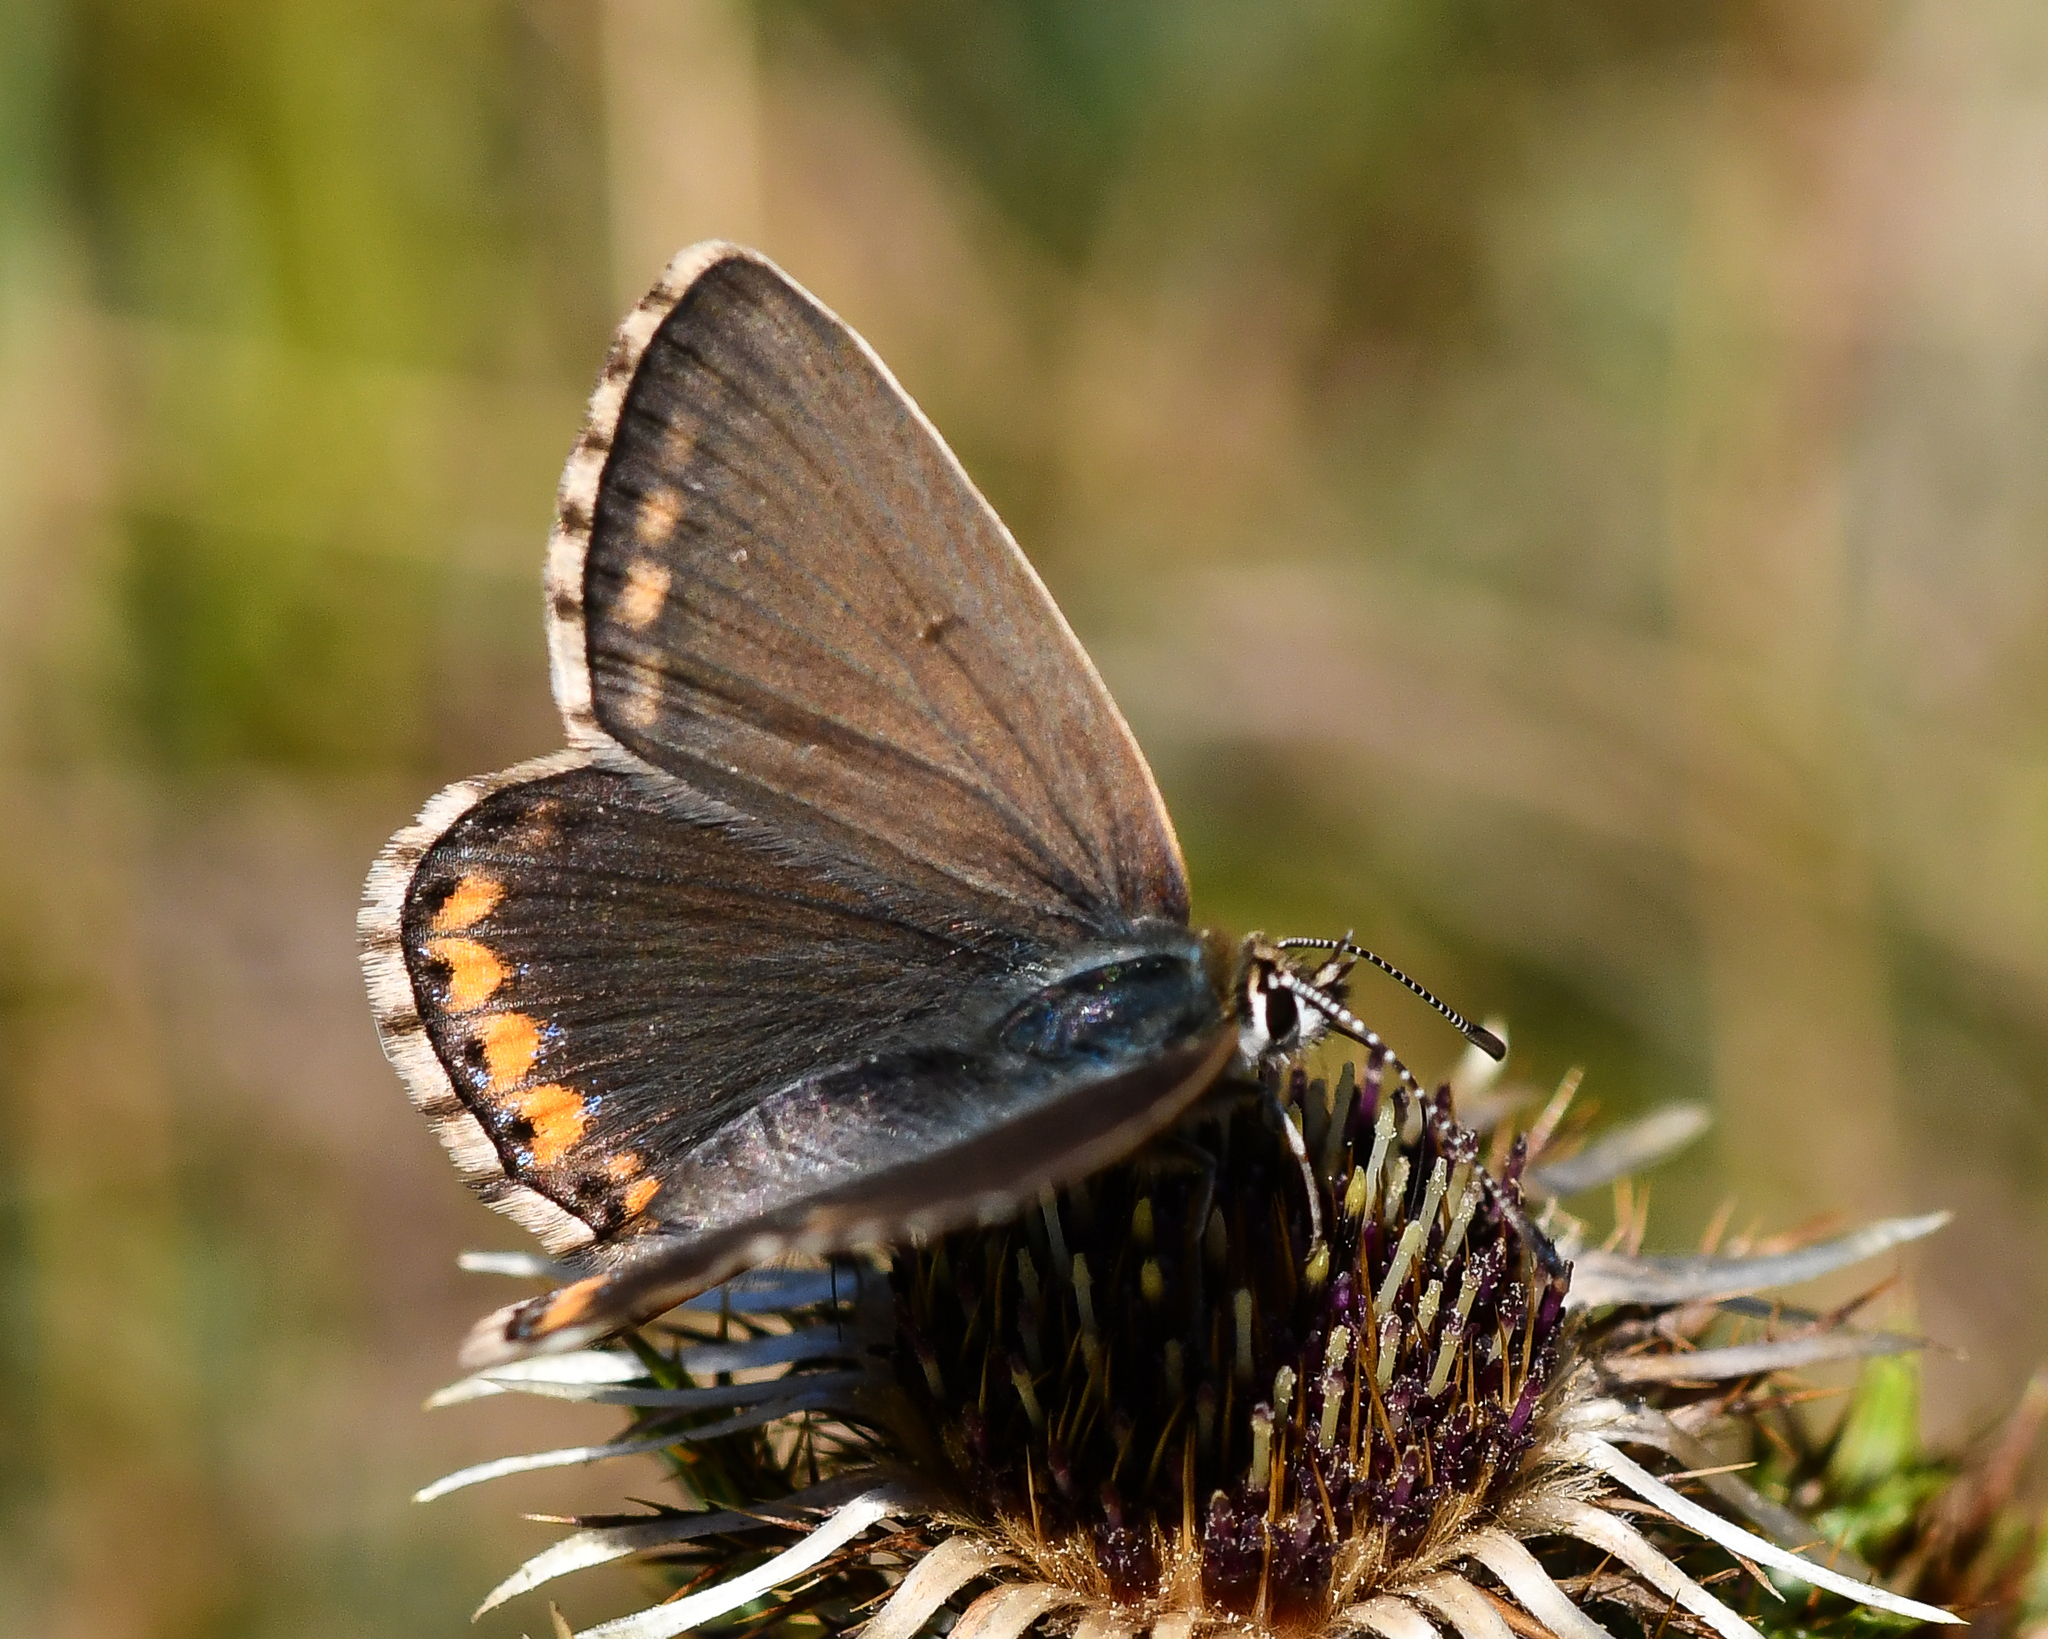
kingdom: Animalia
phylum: Arthropoda
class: Insecta
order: Lepidoptera
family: Lycaenidae
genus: Lysandra
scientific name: Lysandra bellargus
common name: Adonis blue
